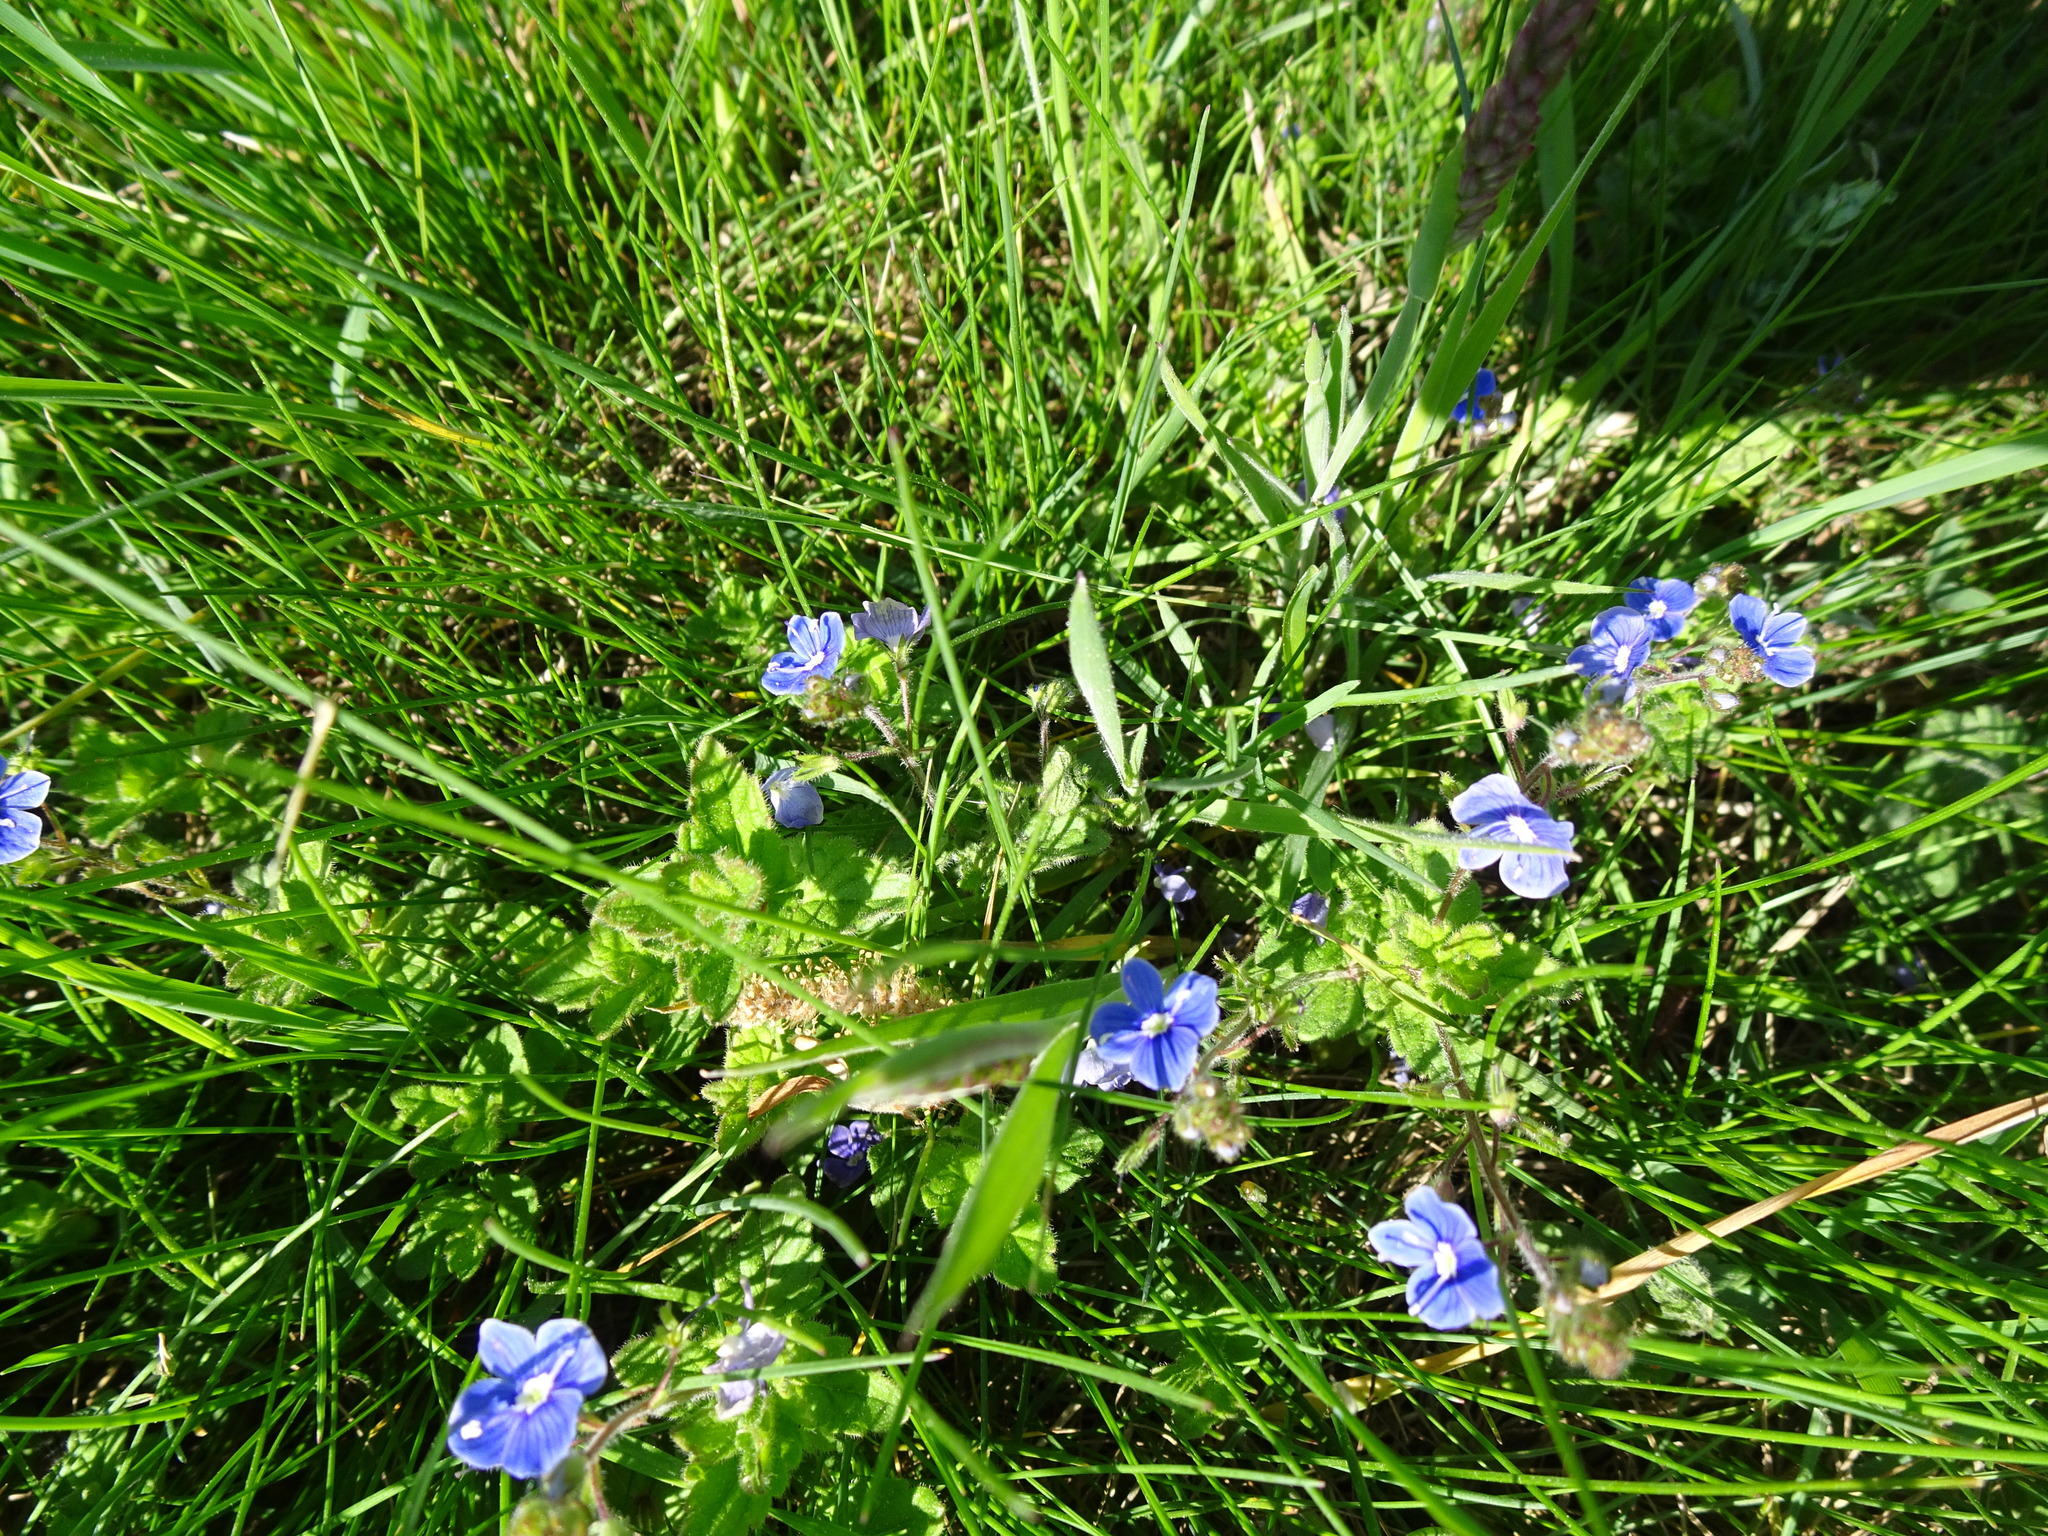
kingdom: Plantae
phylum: Tracheophyta
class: Magnoliopsida
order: Lamiales
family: Plantaginaceae
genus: Veronica
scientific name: Veronica chamaedrys
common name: Germander speedwell
